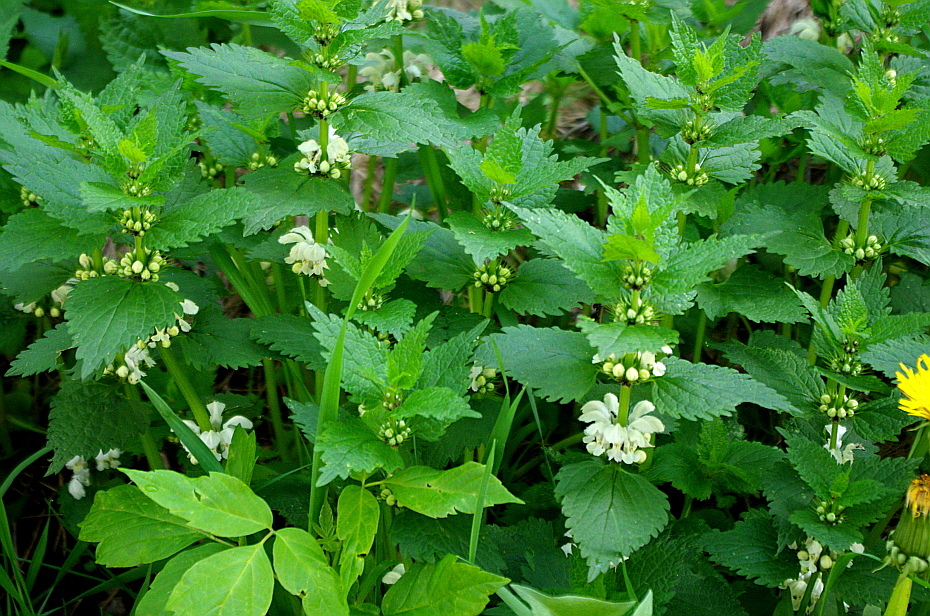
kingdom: Plantae
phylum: Tracheophyta
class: Magnoliopsida
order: Lamiales
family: Lamiaceae
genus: Lamium
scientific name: Lamium album
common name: White dead-nettle
